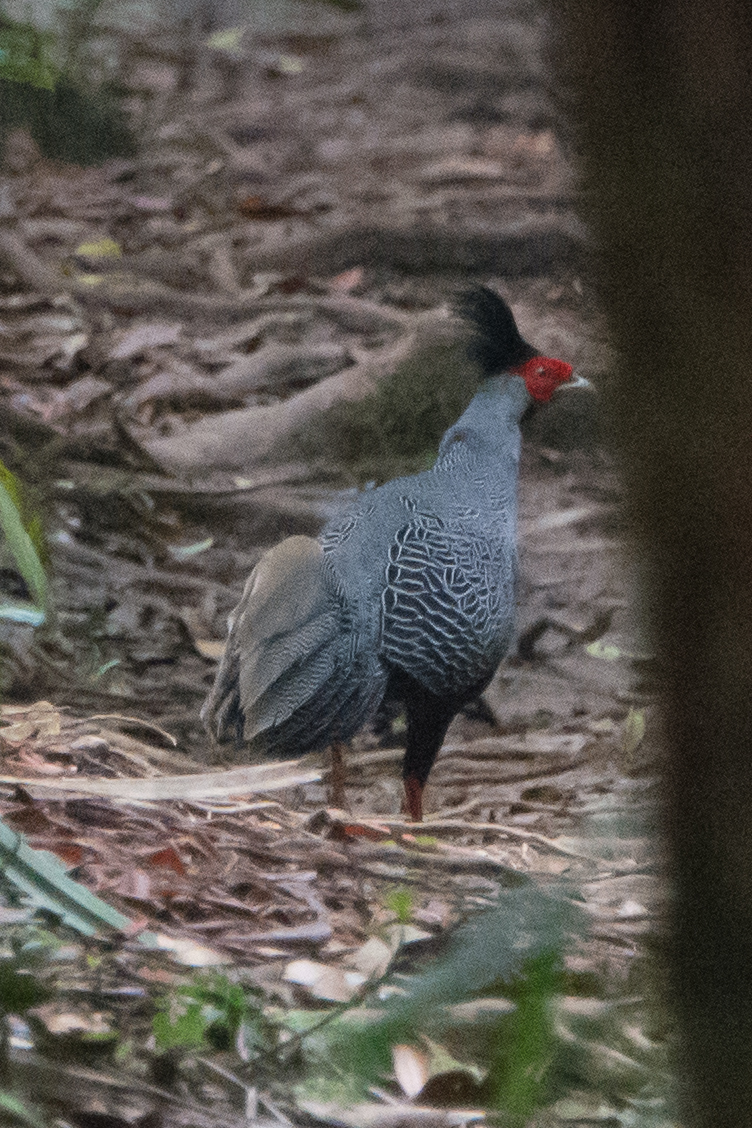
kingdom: Animalia
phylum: Chordata
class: Aves
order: Galliformes
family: Phasianidae
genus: Lophura
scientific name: Lophura nycthemera
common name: Silver pheasant
